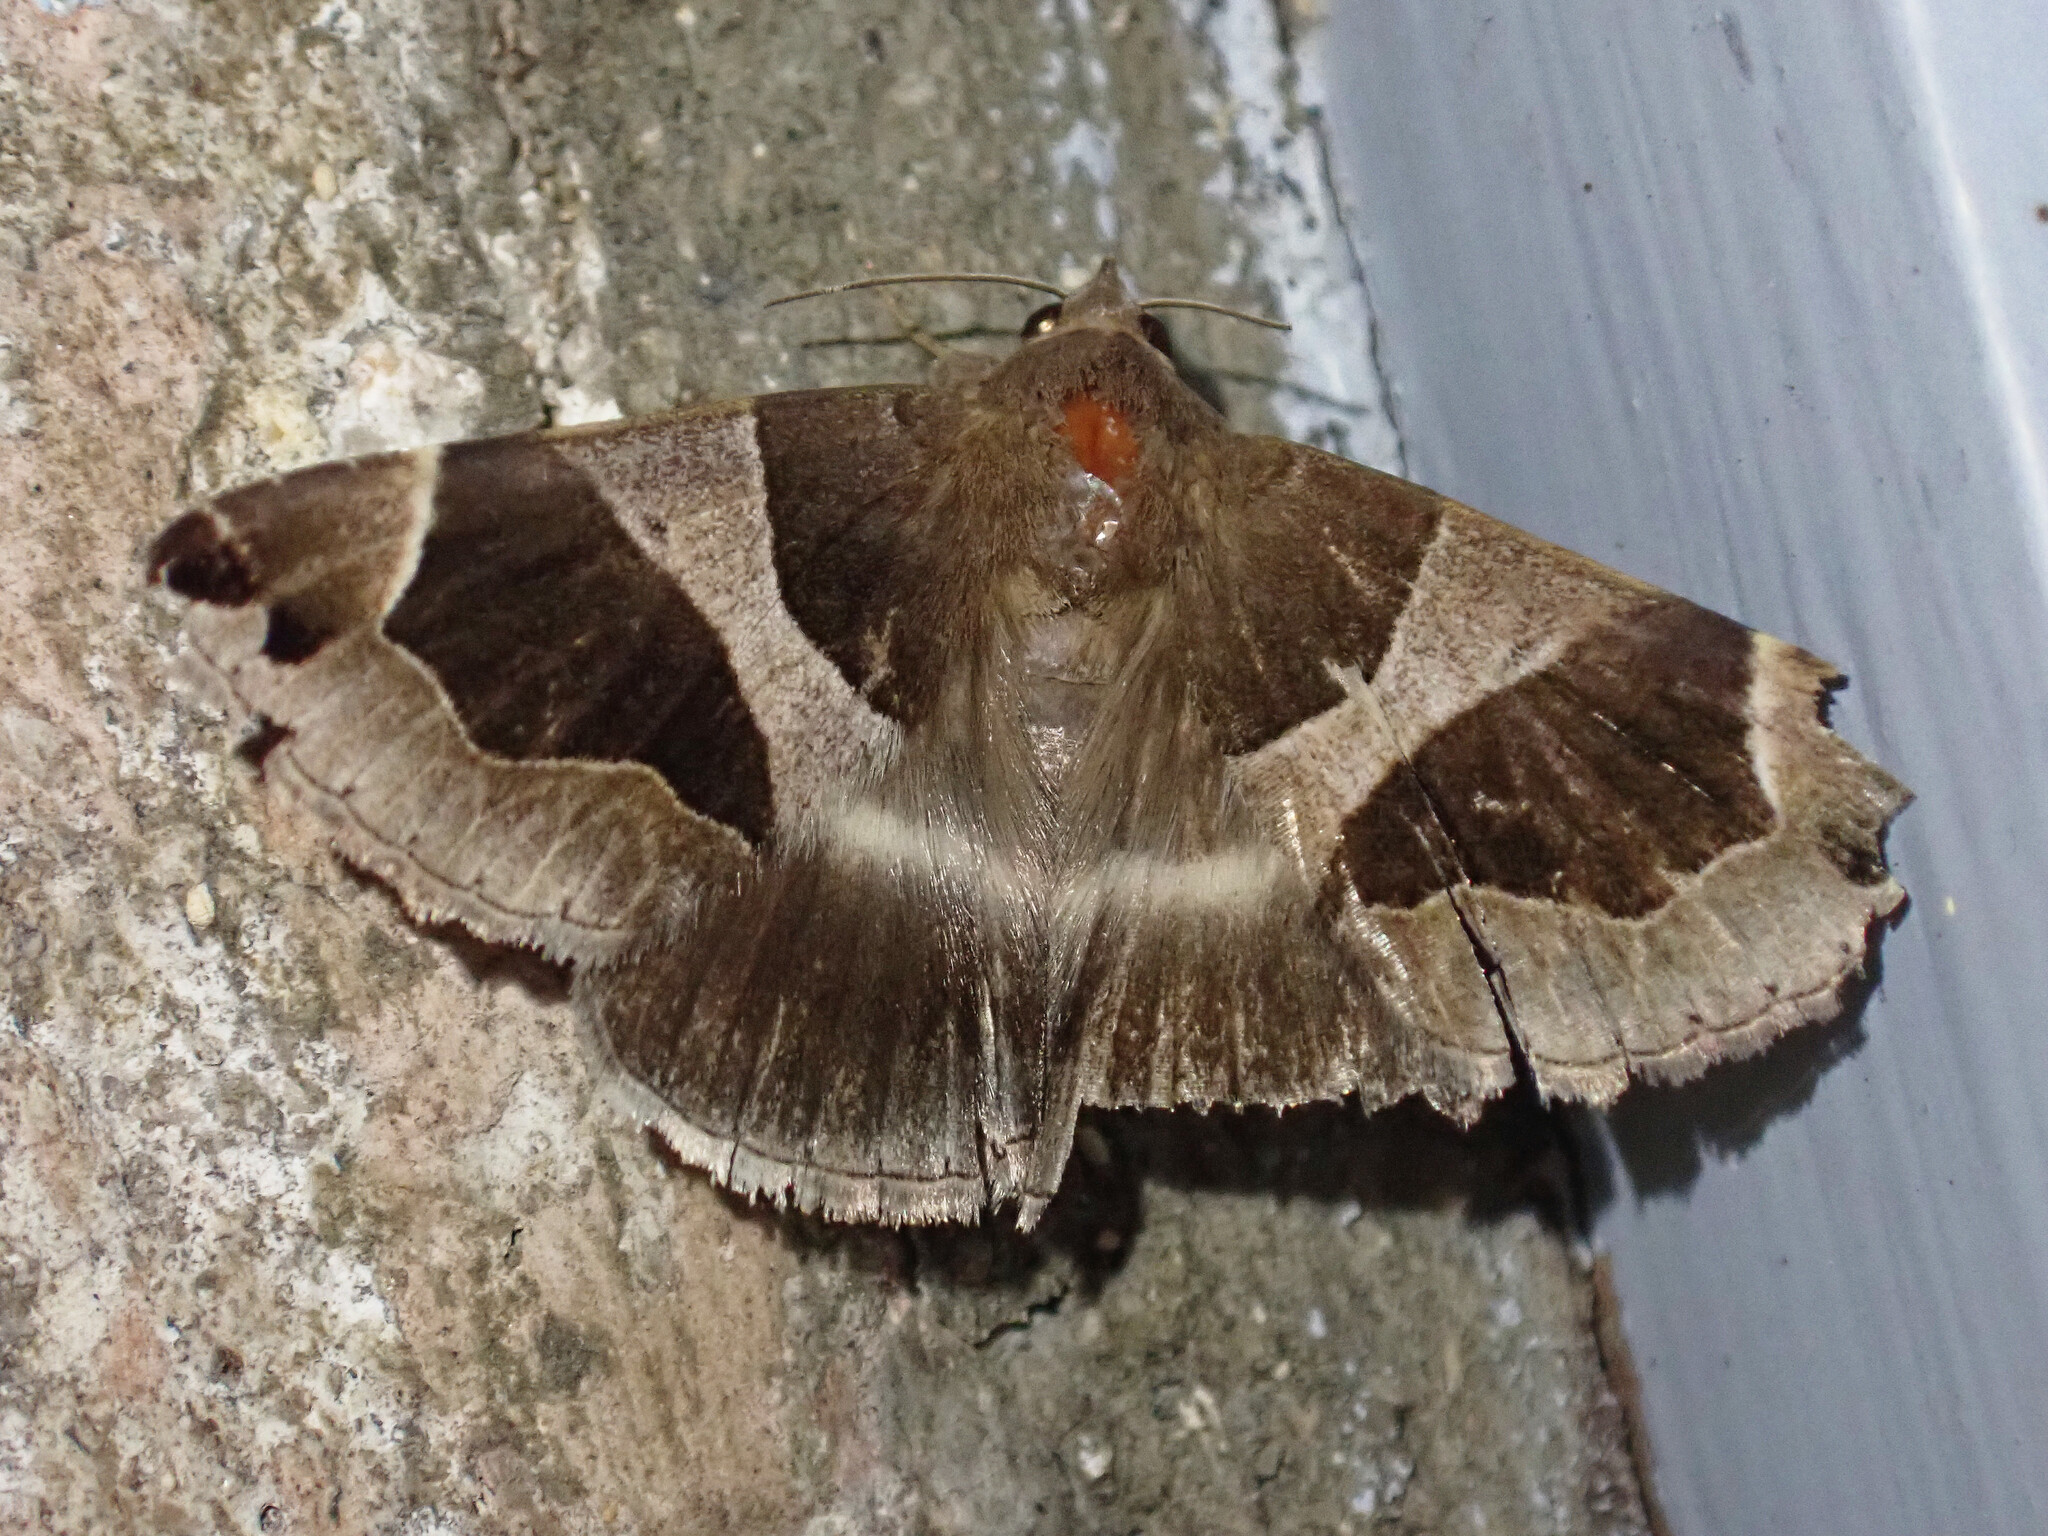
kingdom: Animalia
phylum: Arthropoda
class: Insecta
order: Lepidoptera
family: Erebidae
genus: Dysgonia
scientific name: Dysgonia algira
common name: Passenger
